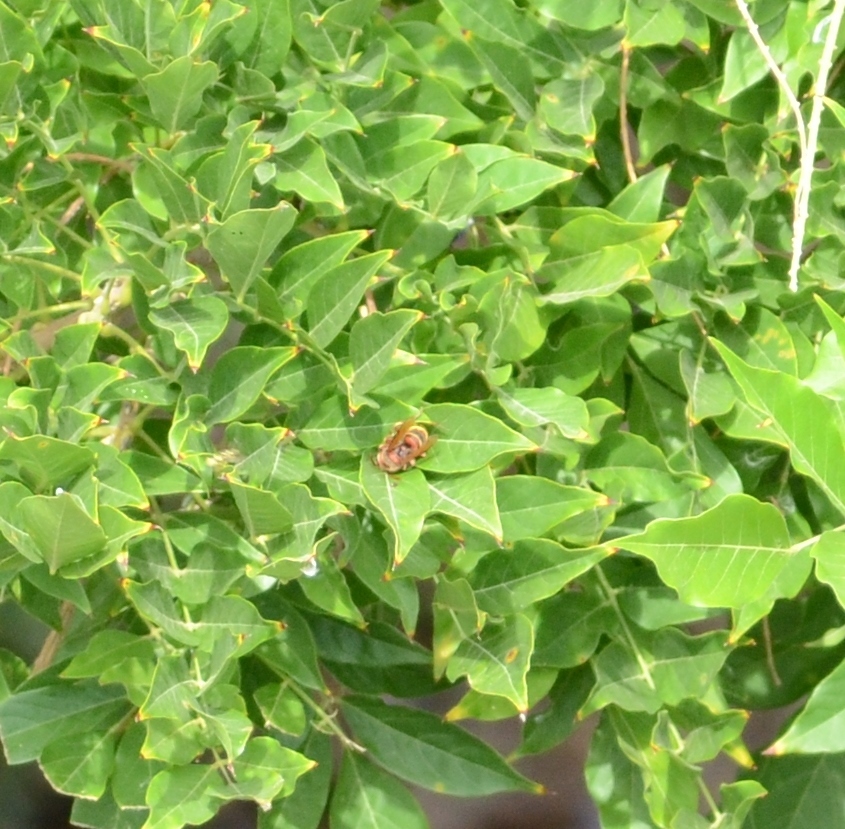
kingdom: Animalia
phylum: Arthropoda
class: Insecta
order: Hymenoptera
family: Vespidae
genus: Vespa
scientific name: Vespa crabro
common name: Hornet
